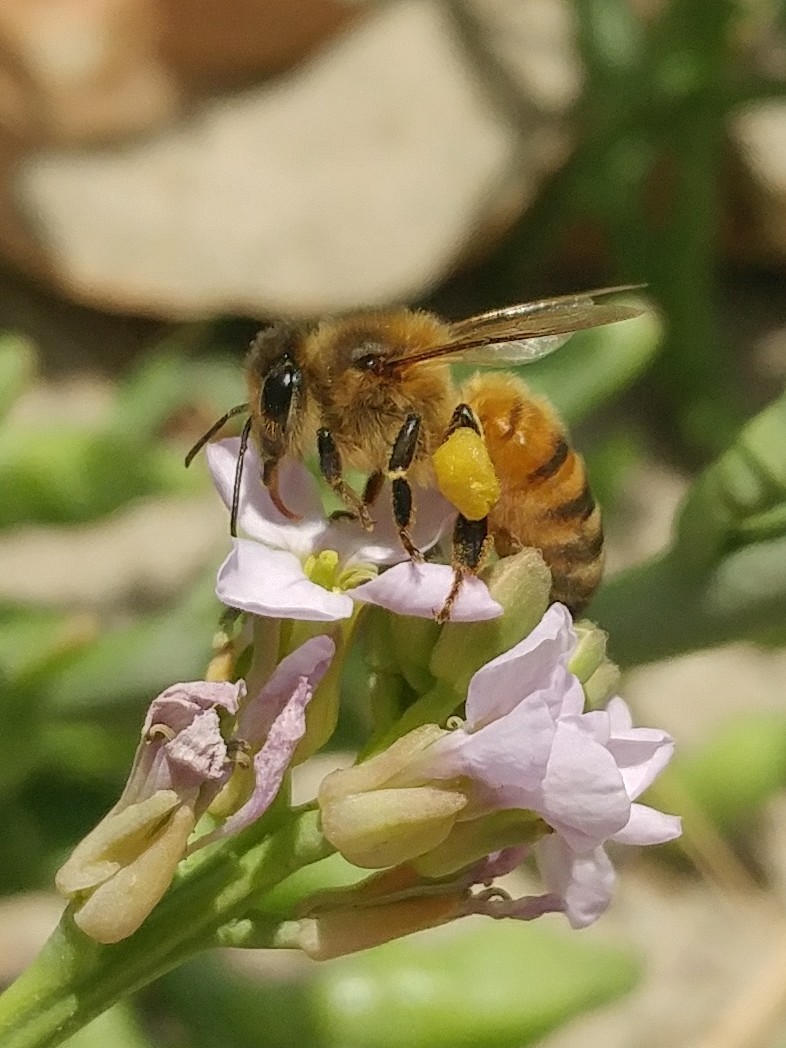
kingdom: Animalia
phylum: Arthropoda
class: Insecta
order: Hymenoptera
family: Apidae
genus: Apis
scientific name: Apis mellifera
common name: Honey bee
